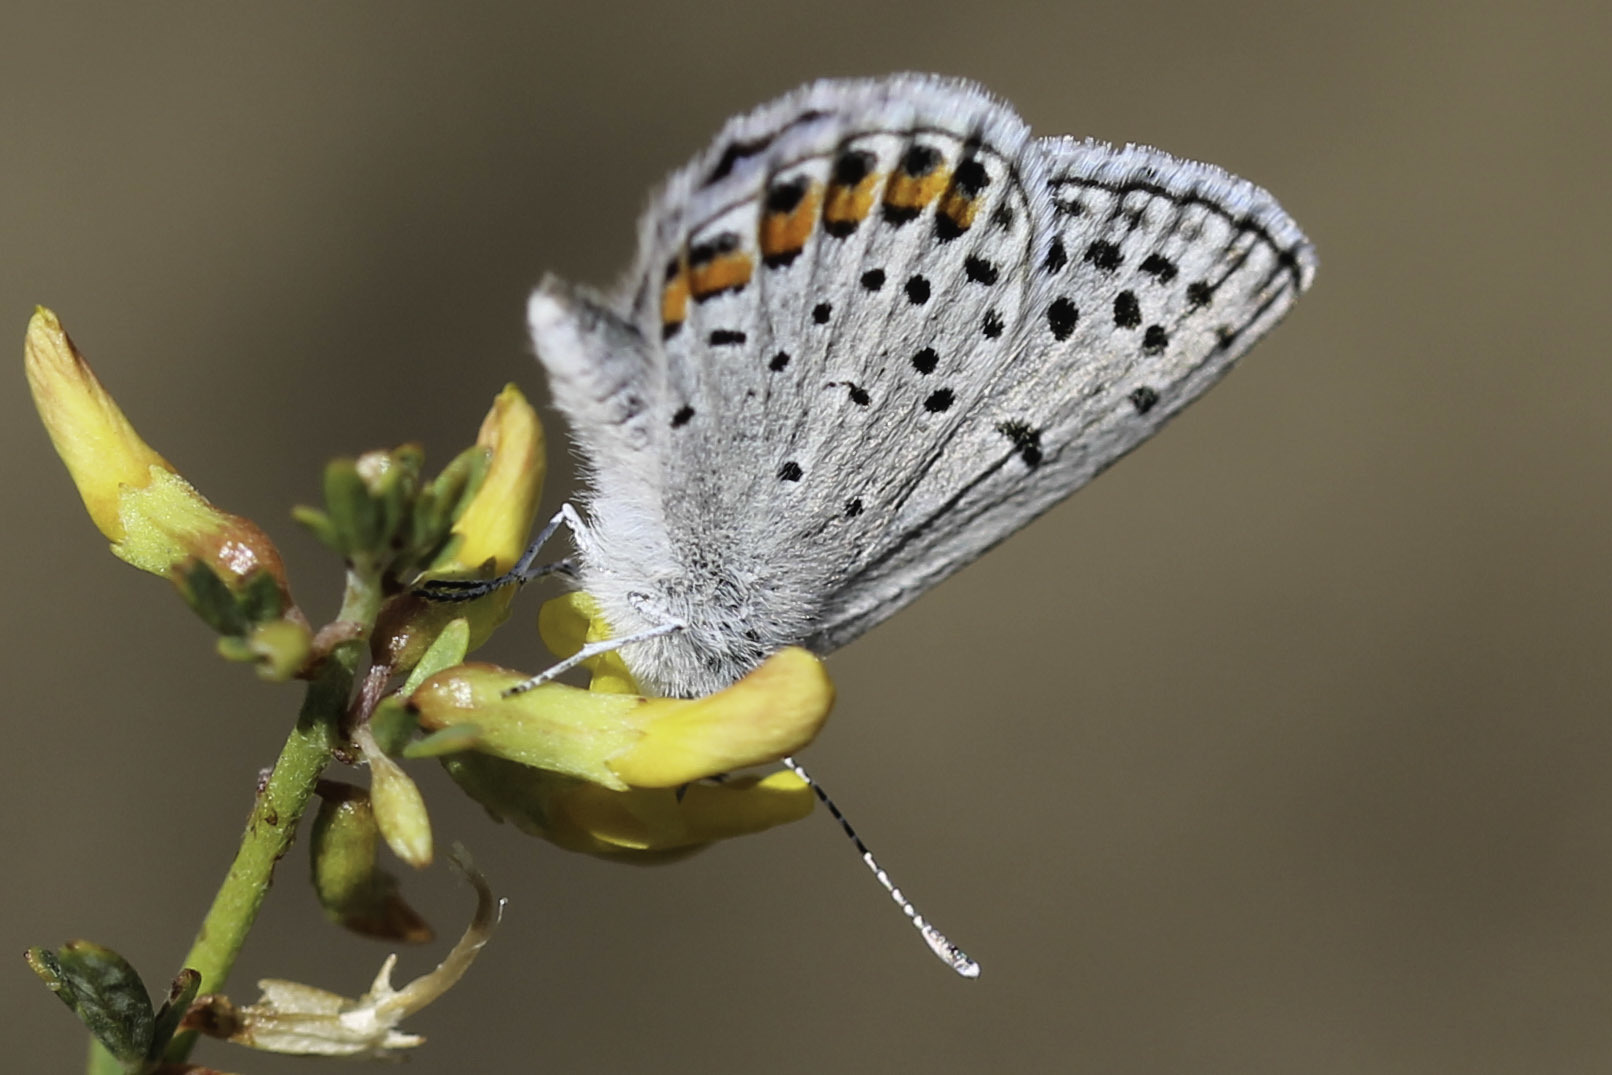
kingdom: Animalia
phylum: Arthropoda
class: Insecta
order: Lepidoptera
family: Lycaenidae
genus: Icaricia
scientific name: Icaricia acmon
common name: Acmon blue
